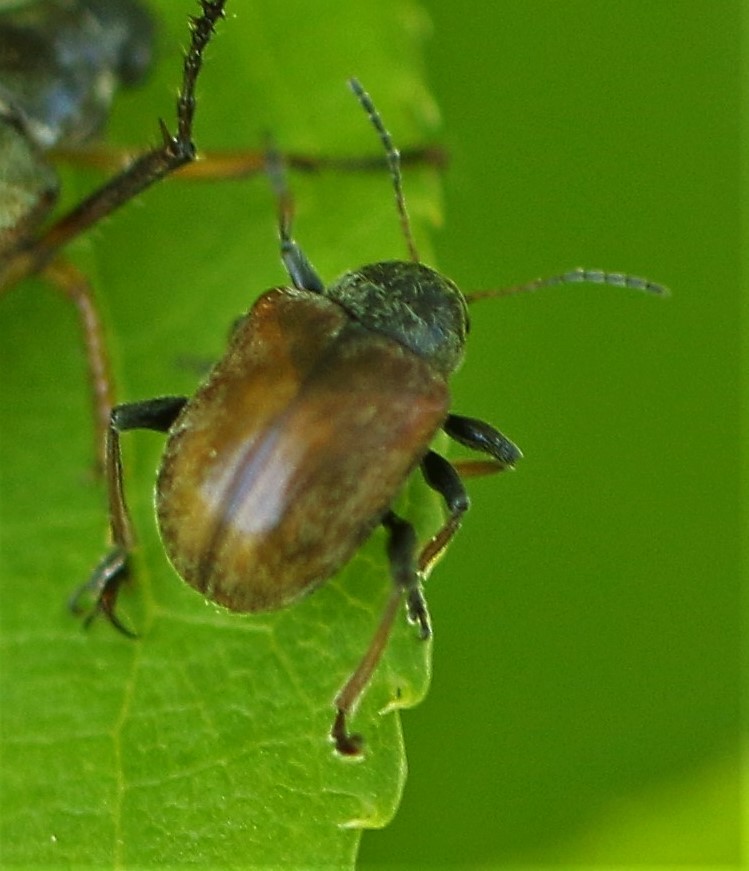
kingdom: Animalia
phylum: Arthropoda
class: Insecta
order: Coleoptera
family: Chrysomelidae
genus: Bromius
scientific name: Bromius obscurus
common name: Western grape rootworm
